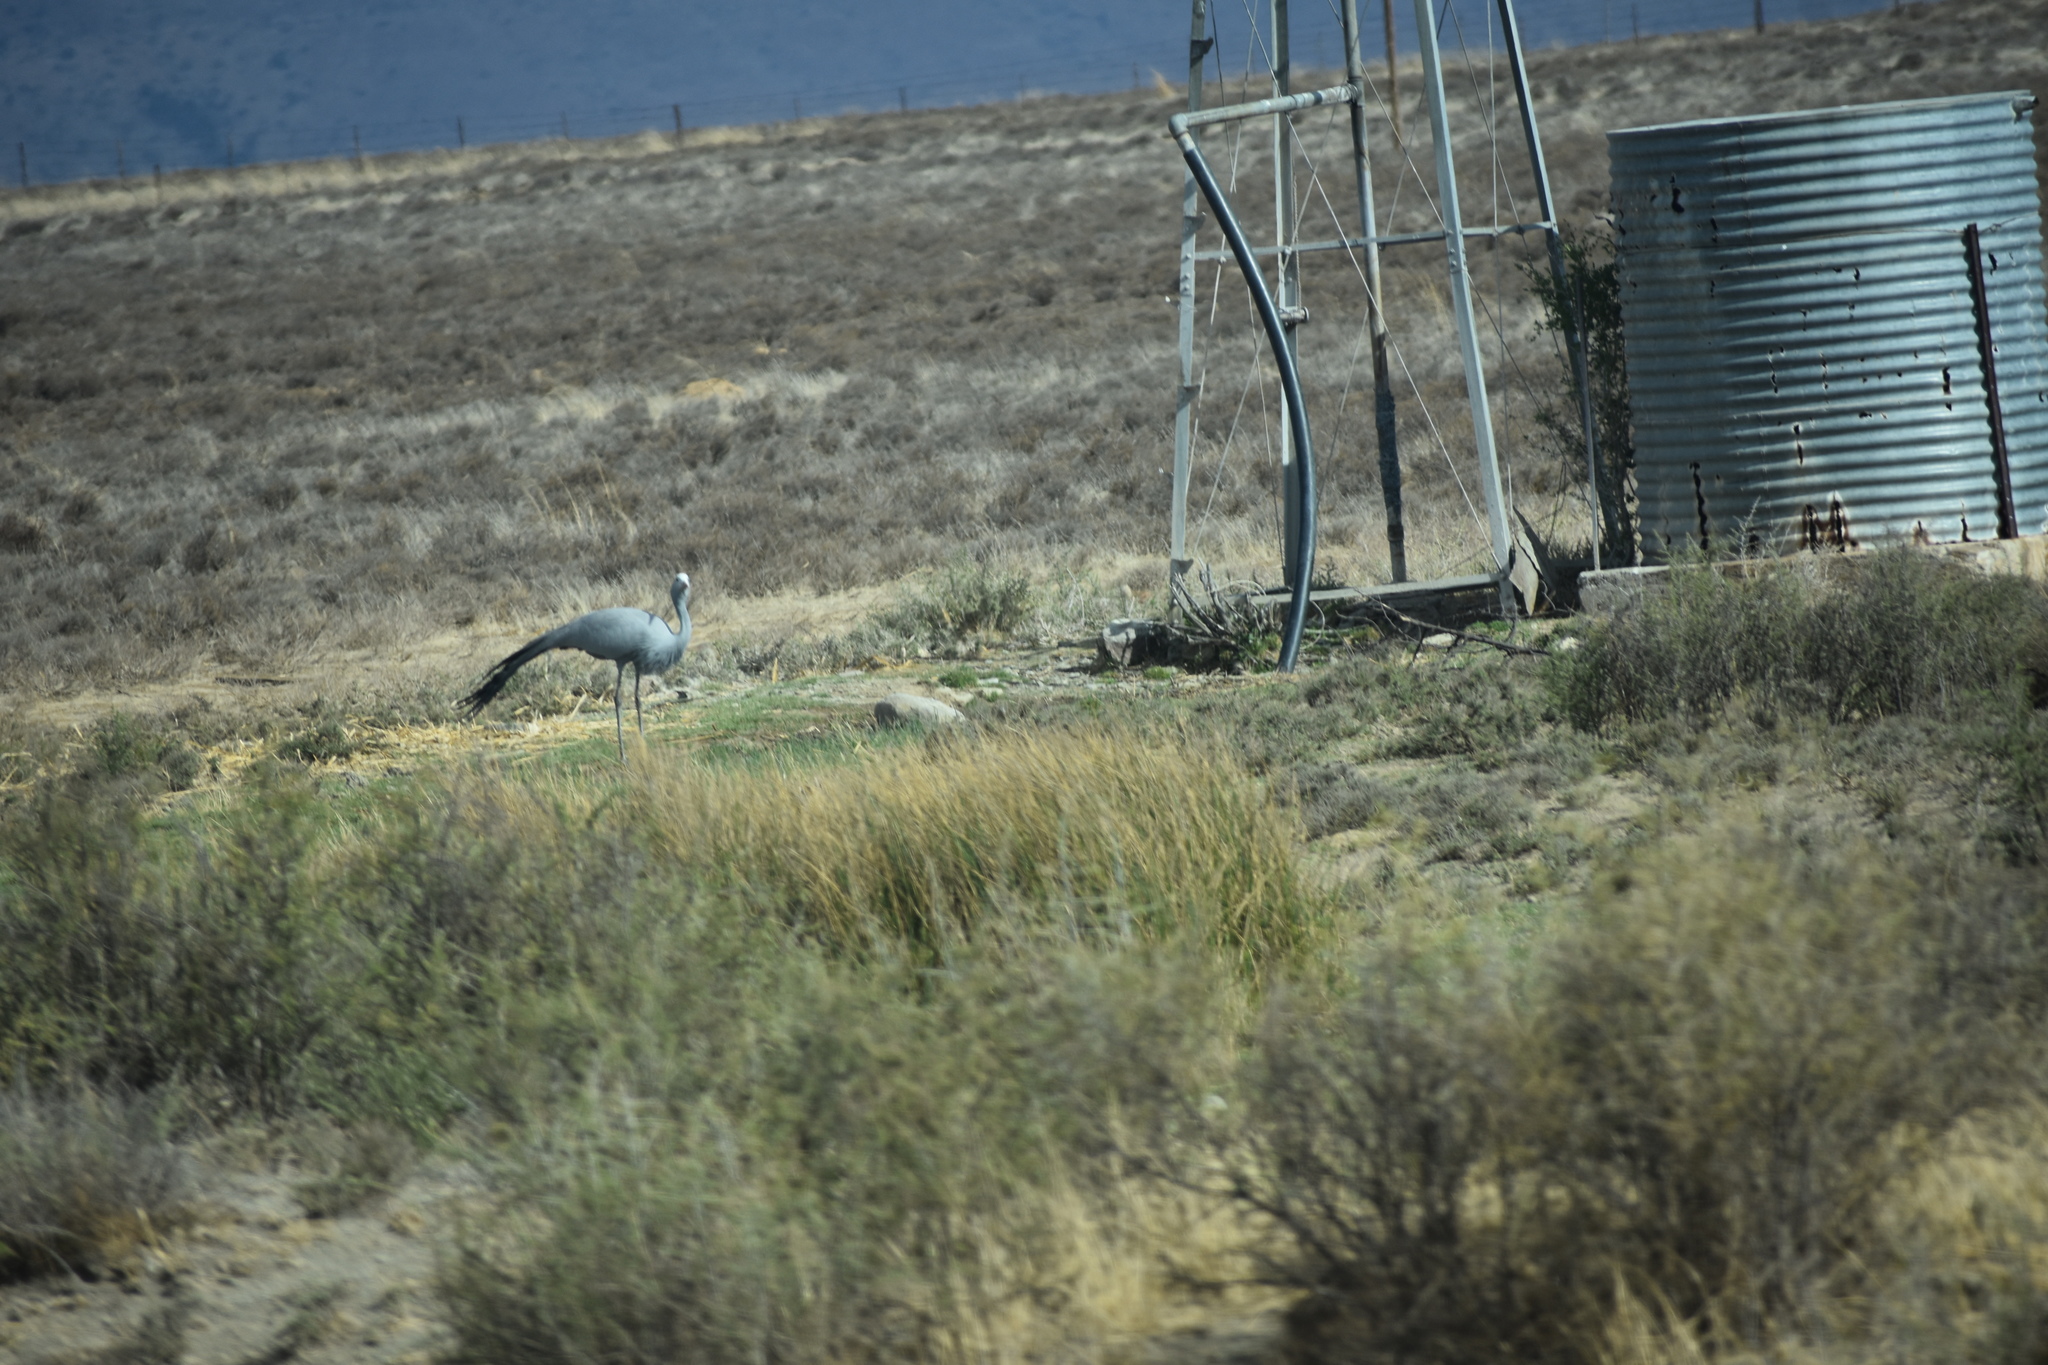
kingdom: Animalia
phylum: Chordata
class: Aves
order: Gruiformes
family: Gruidae
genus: Anthropoides
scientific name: Anthropoides paradiseus
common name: Blue crane
